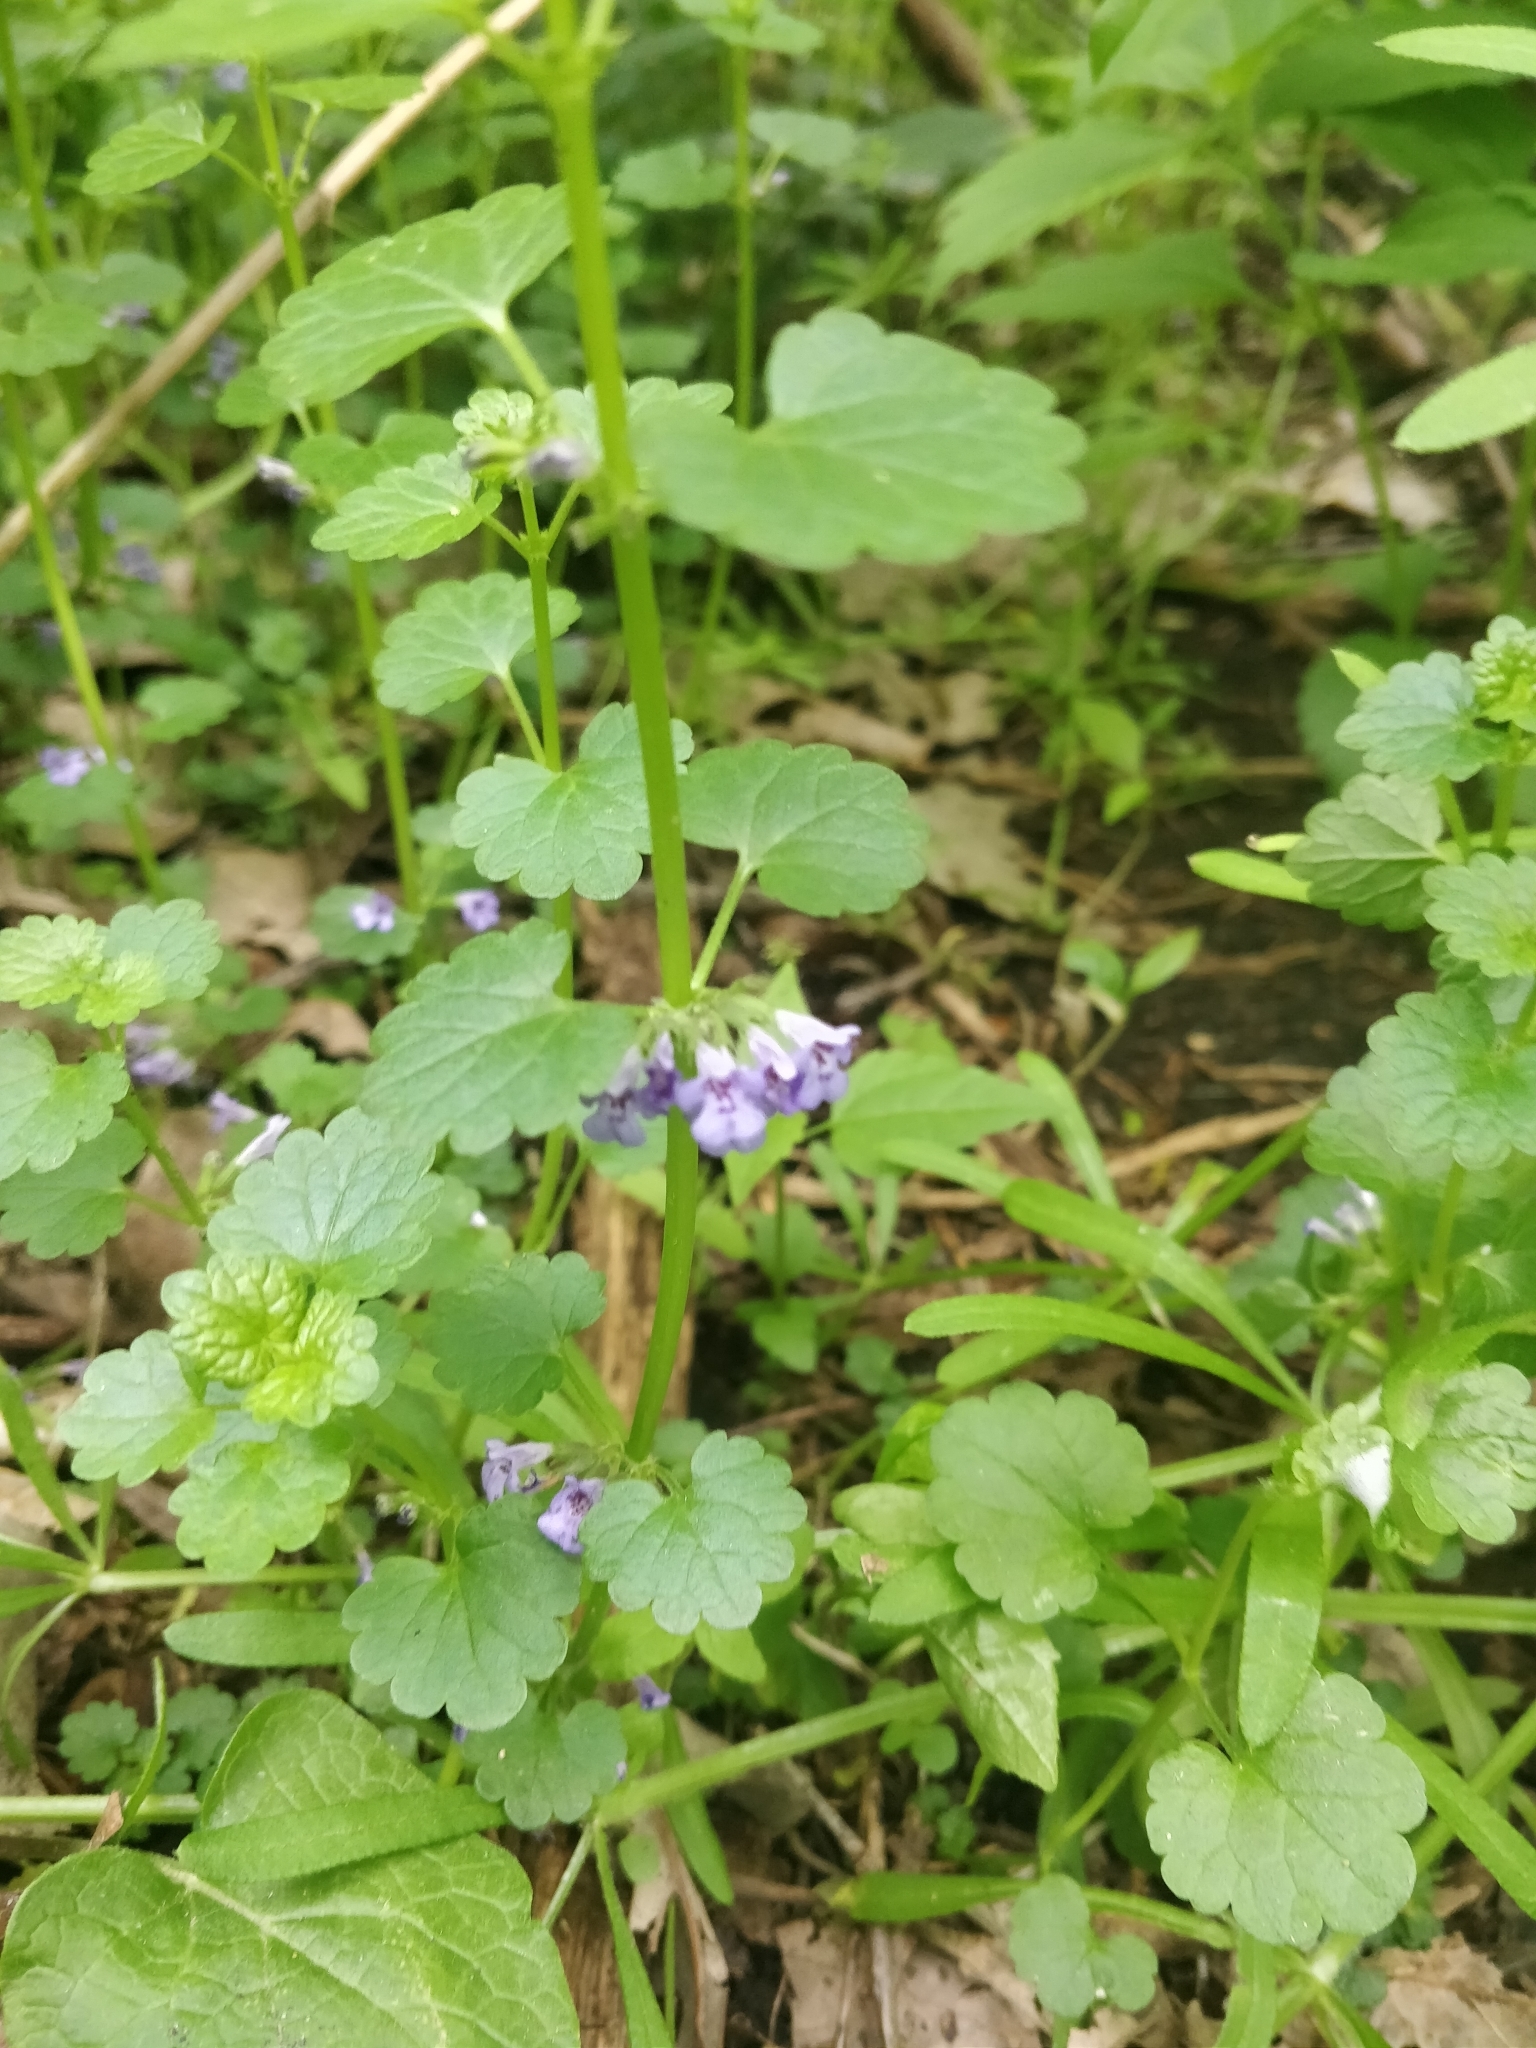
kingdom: Plantae
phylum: Tracheophyta
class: Magnoliopsida
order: Lamiales
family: Lamiaceae
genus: Glechoma
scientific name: Glechoma hederacea
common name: Ground ivy
